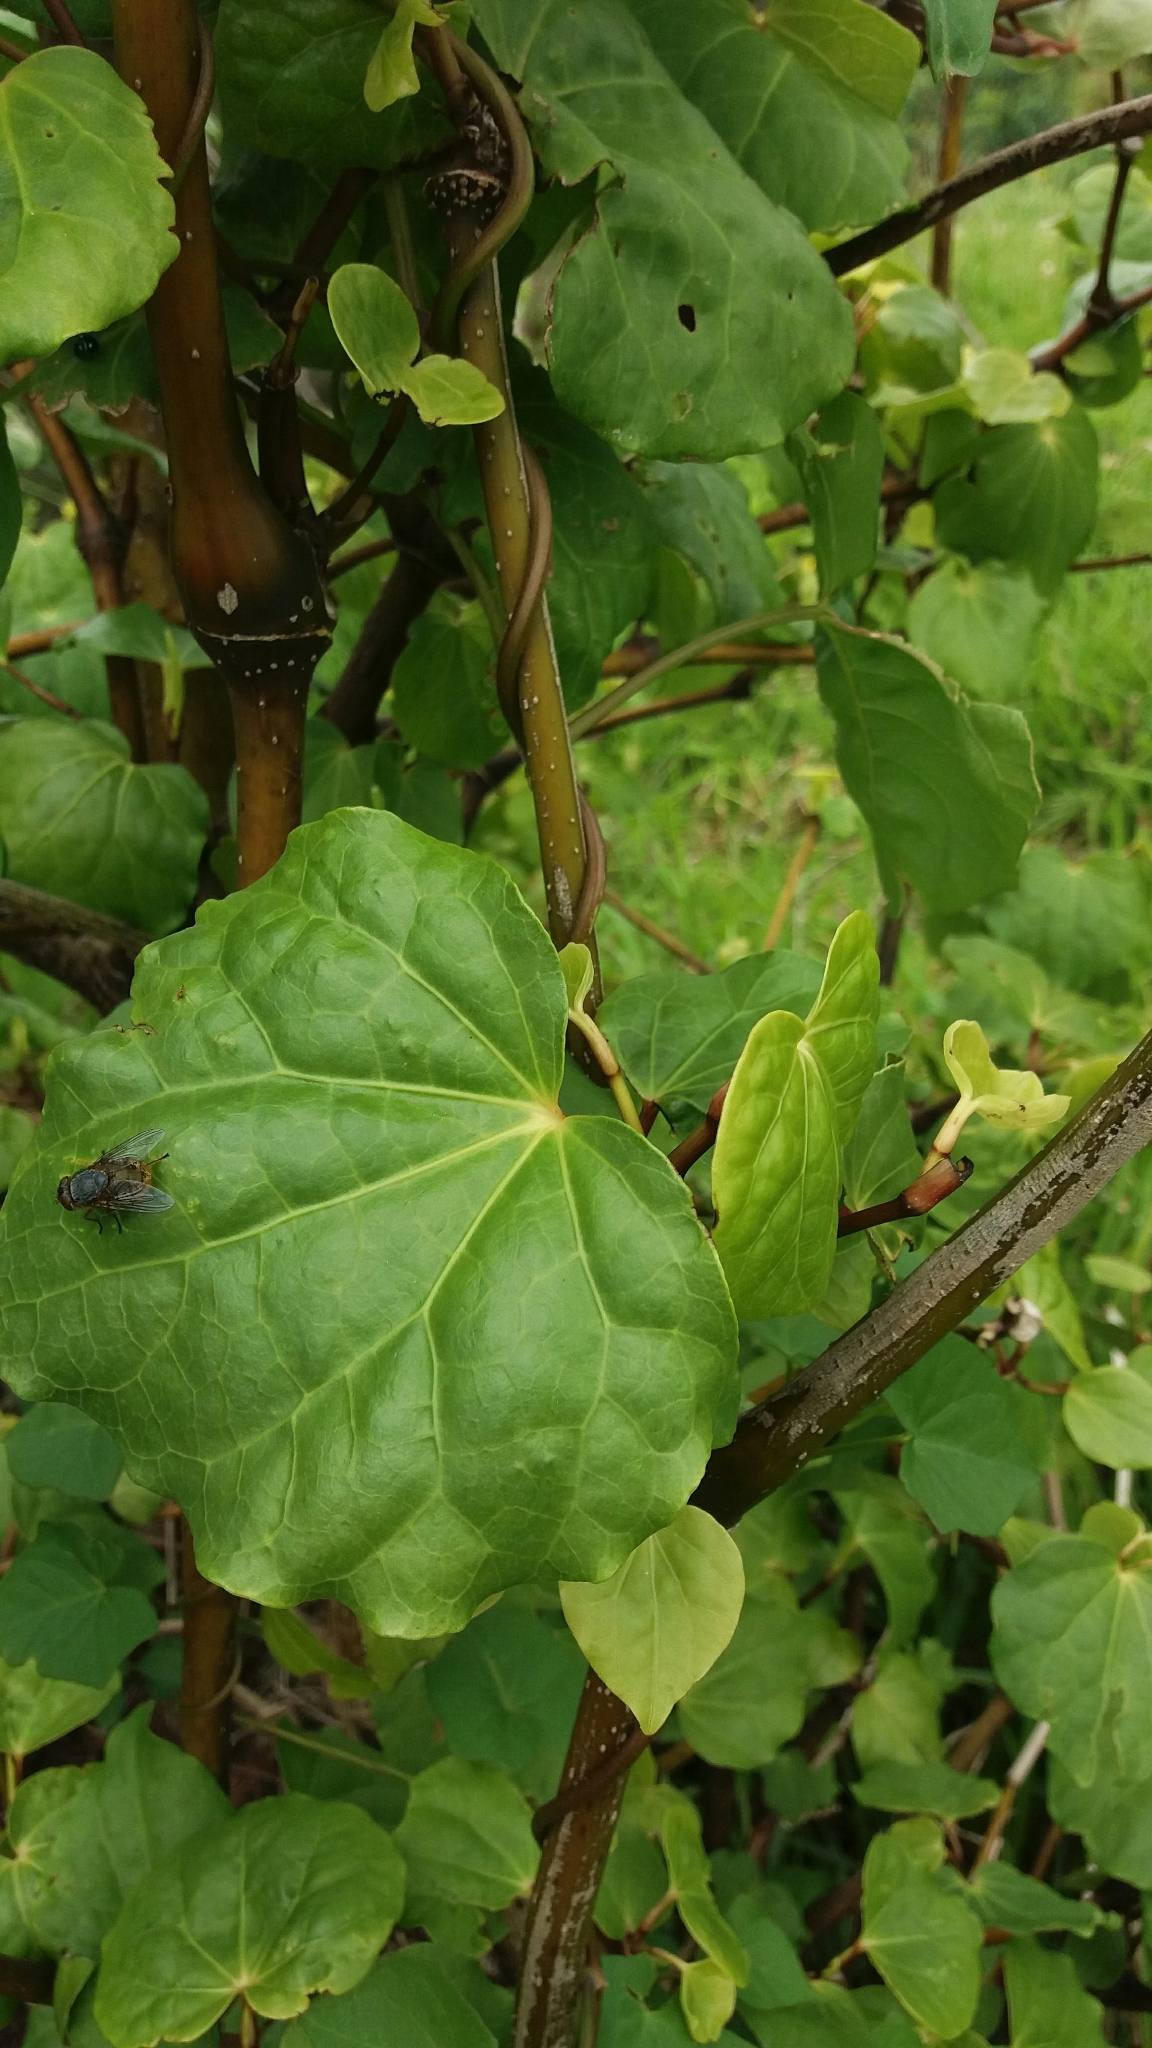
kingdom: Plantae
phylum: Tracheophyta
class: Magnoliopsida
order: Piperales
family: Piperaceae
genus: Macropiper
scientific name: Macropiper excelsum
